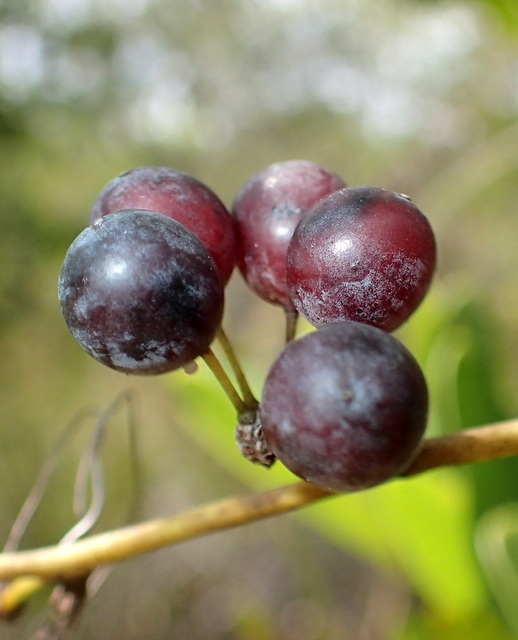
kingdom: Plantae
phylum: Tracheophyta
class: Liliopsida
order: Liliales
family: Smilacaceae
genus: Smilax
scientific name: Smilax laurifolia
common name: Bamboovine
